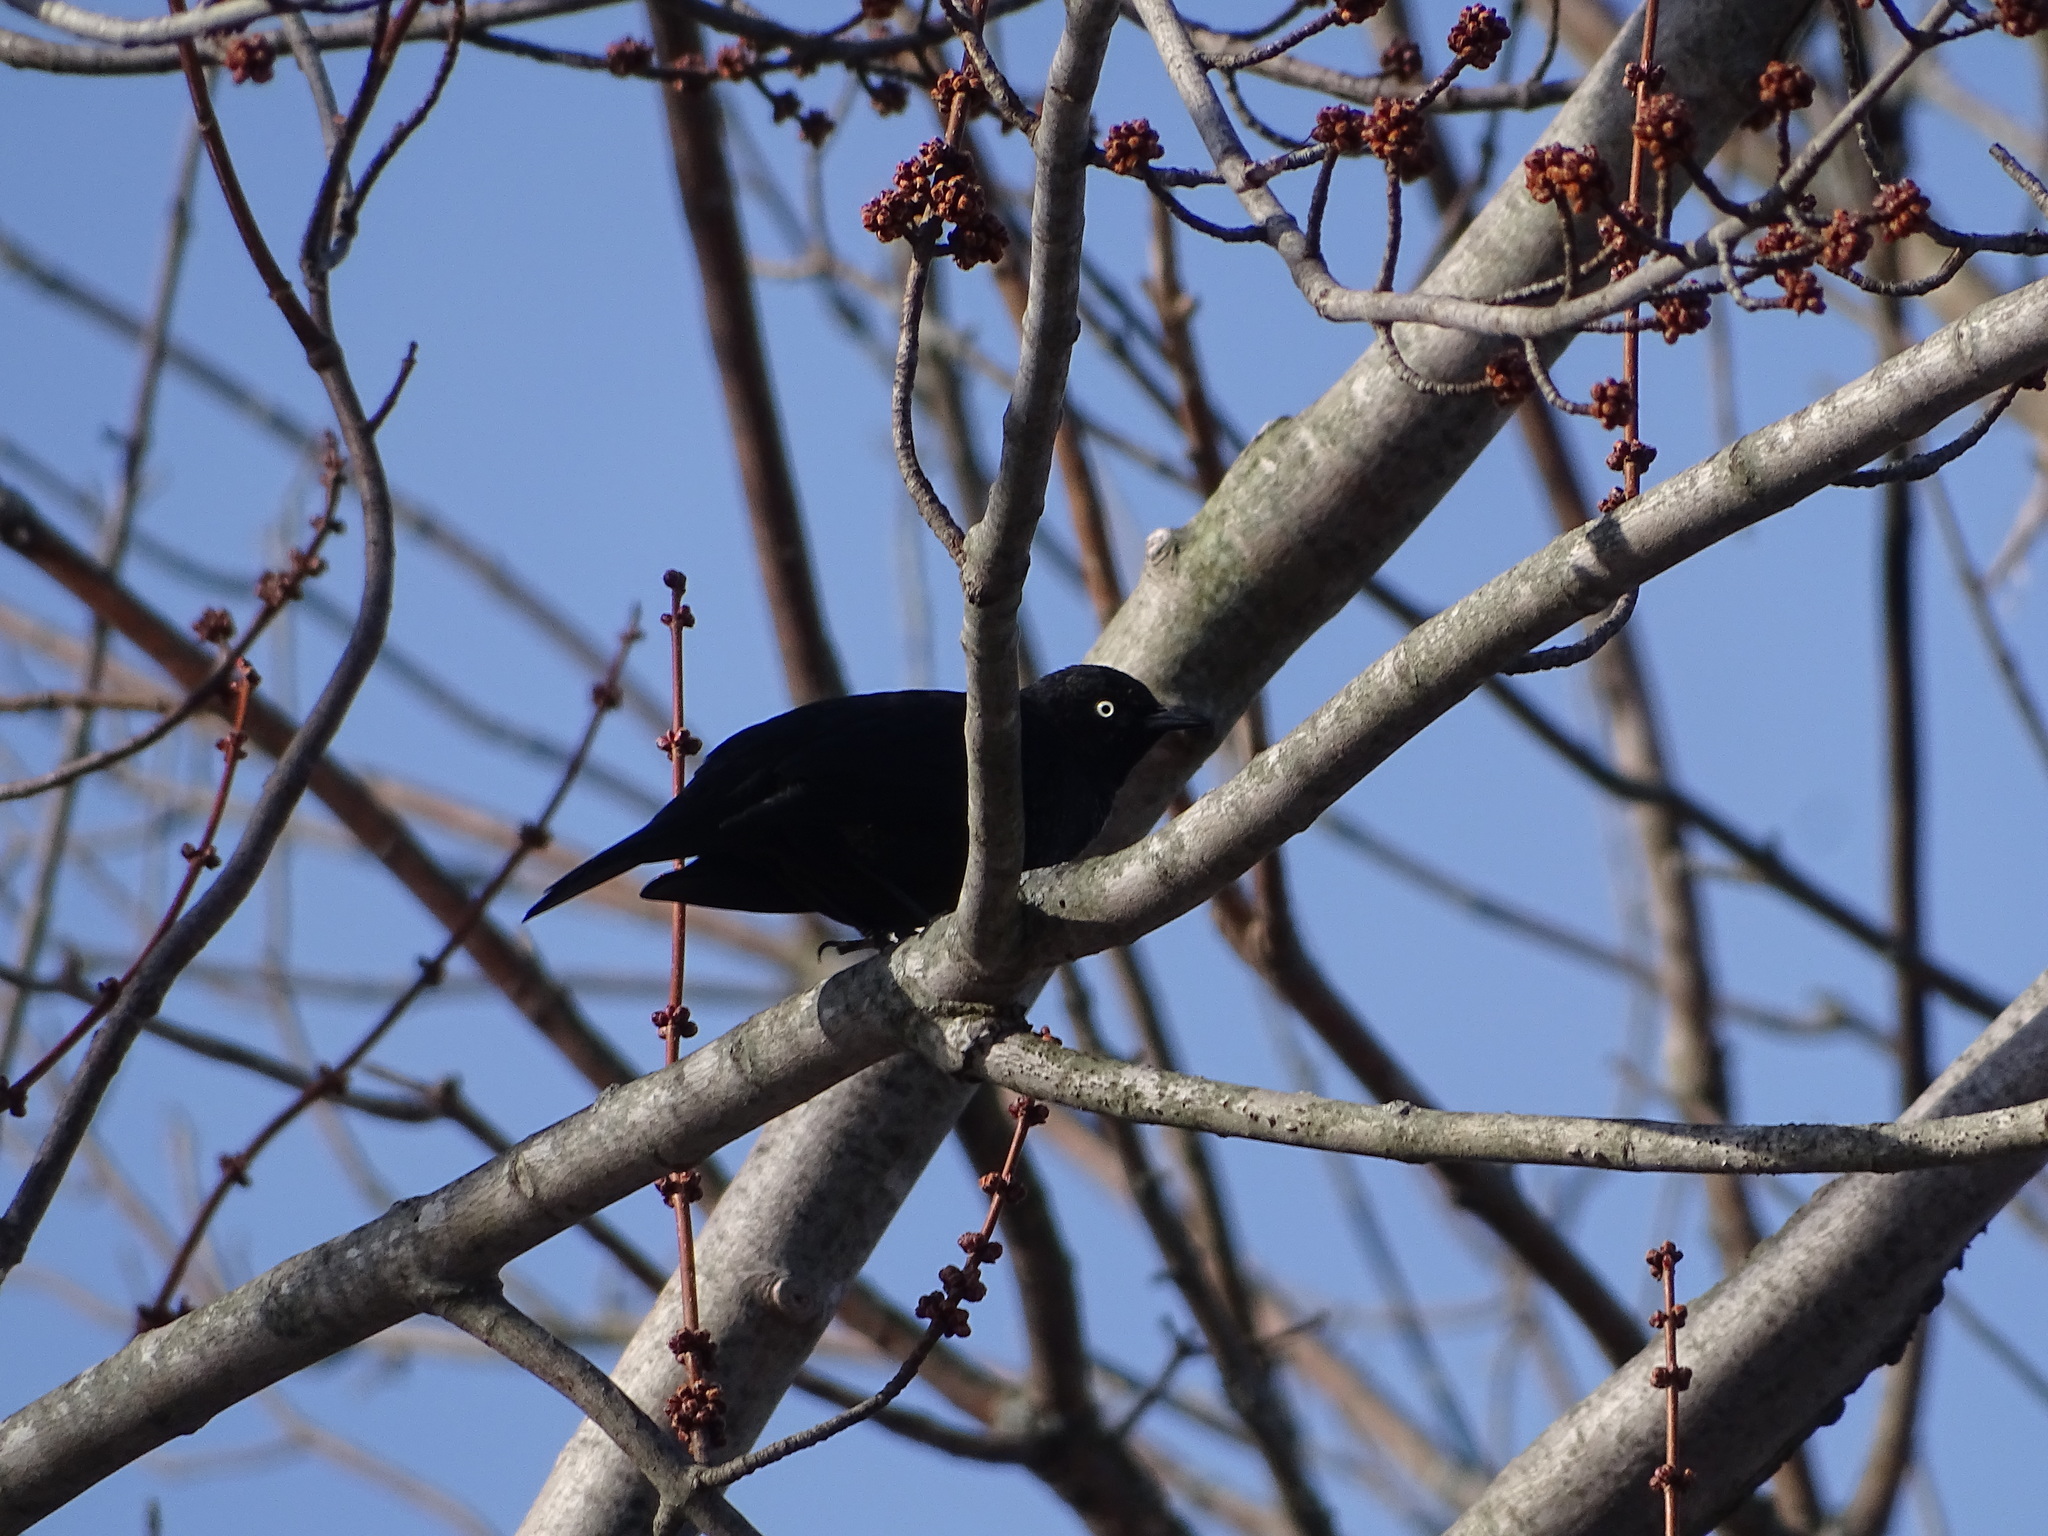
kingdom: Animalia
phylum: Chordata
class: Aves
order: Passeriformes
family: Icteridae
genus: Euphagus
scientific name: Euphagus carolinus
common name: Rusty blackbird
